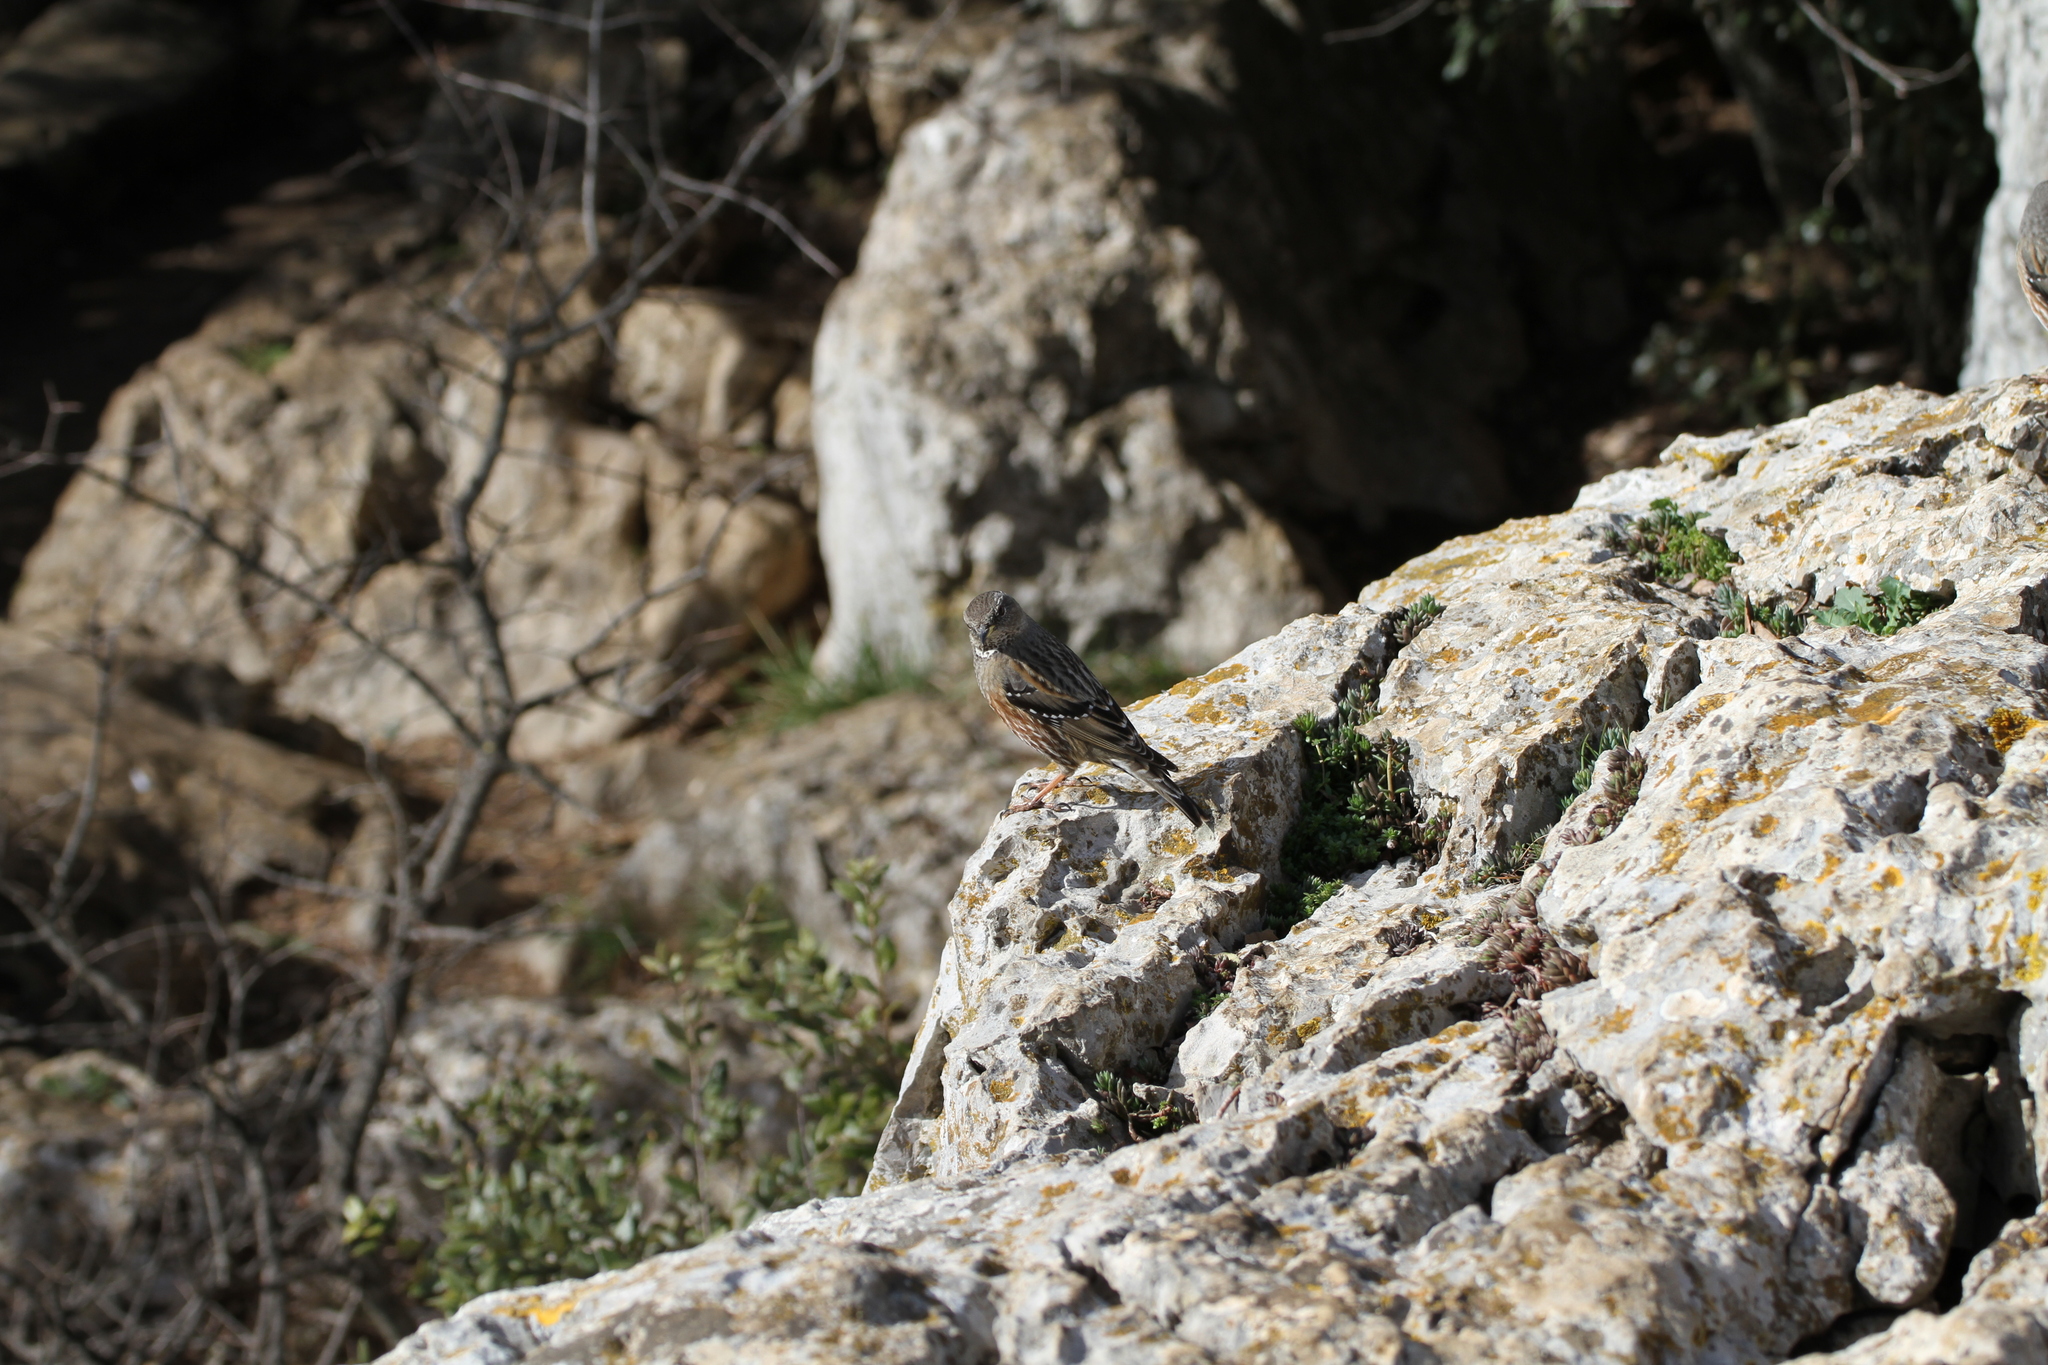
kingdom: Animalia
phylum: Chordata
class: Aves
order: Passeriformes
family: Prunellidae
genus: Prunella
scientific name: Prunella collaris
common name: Alpine accentor
